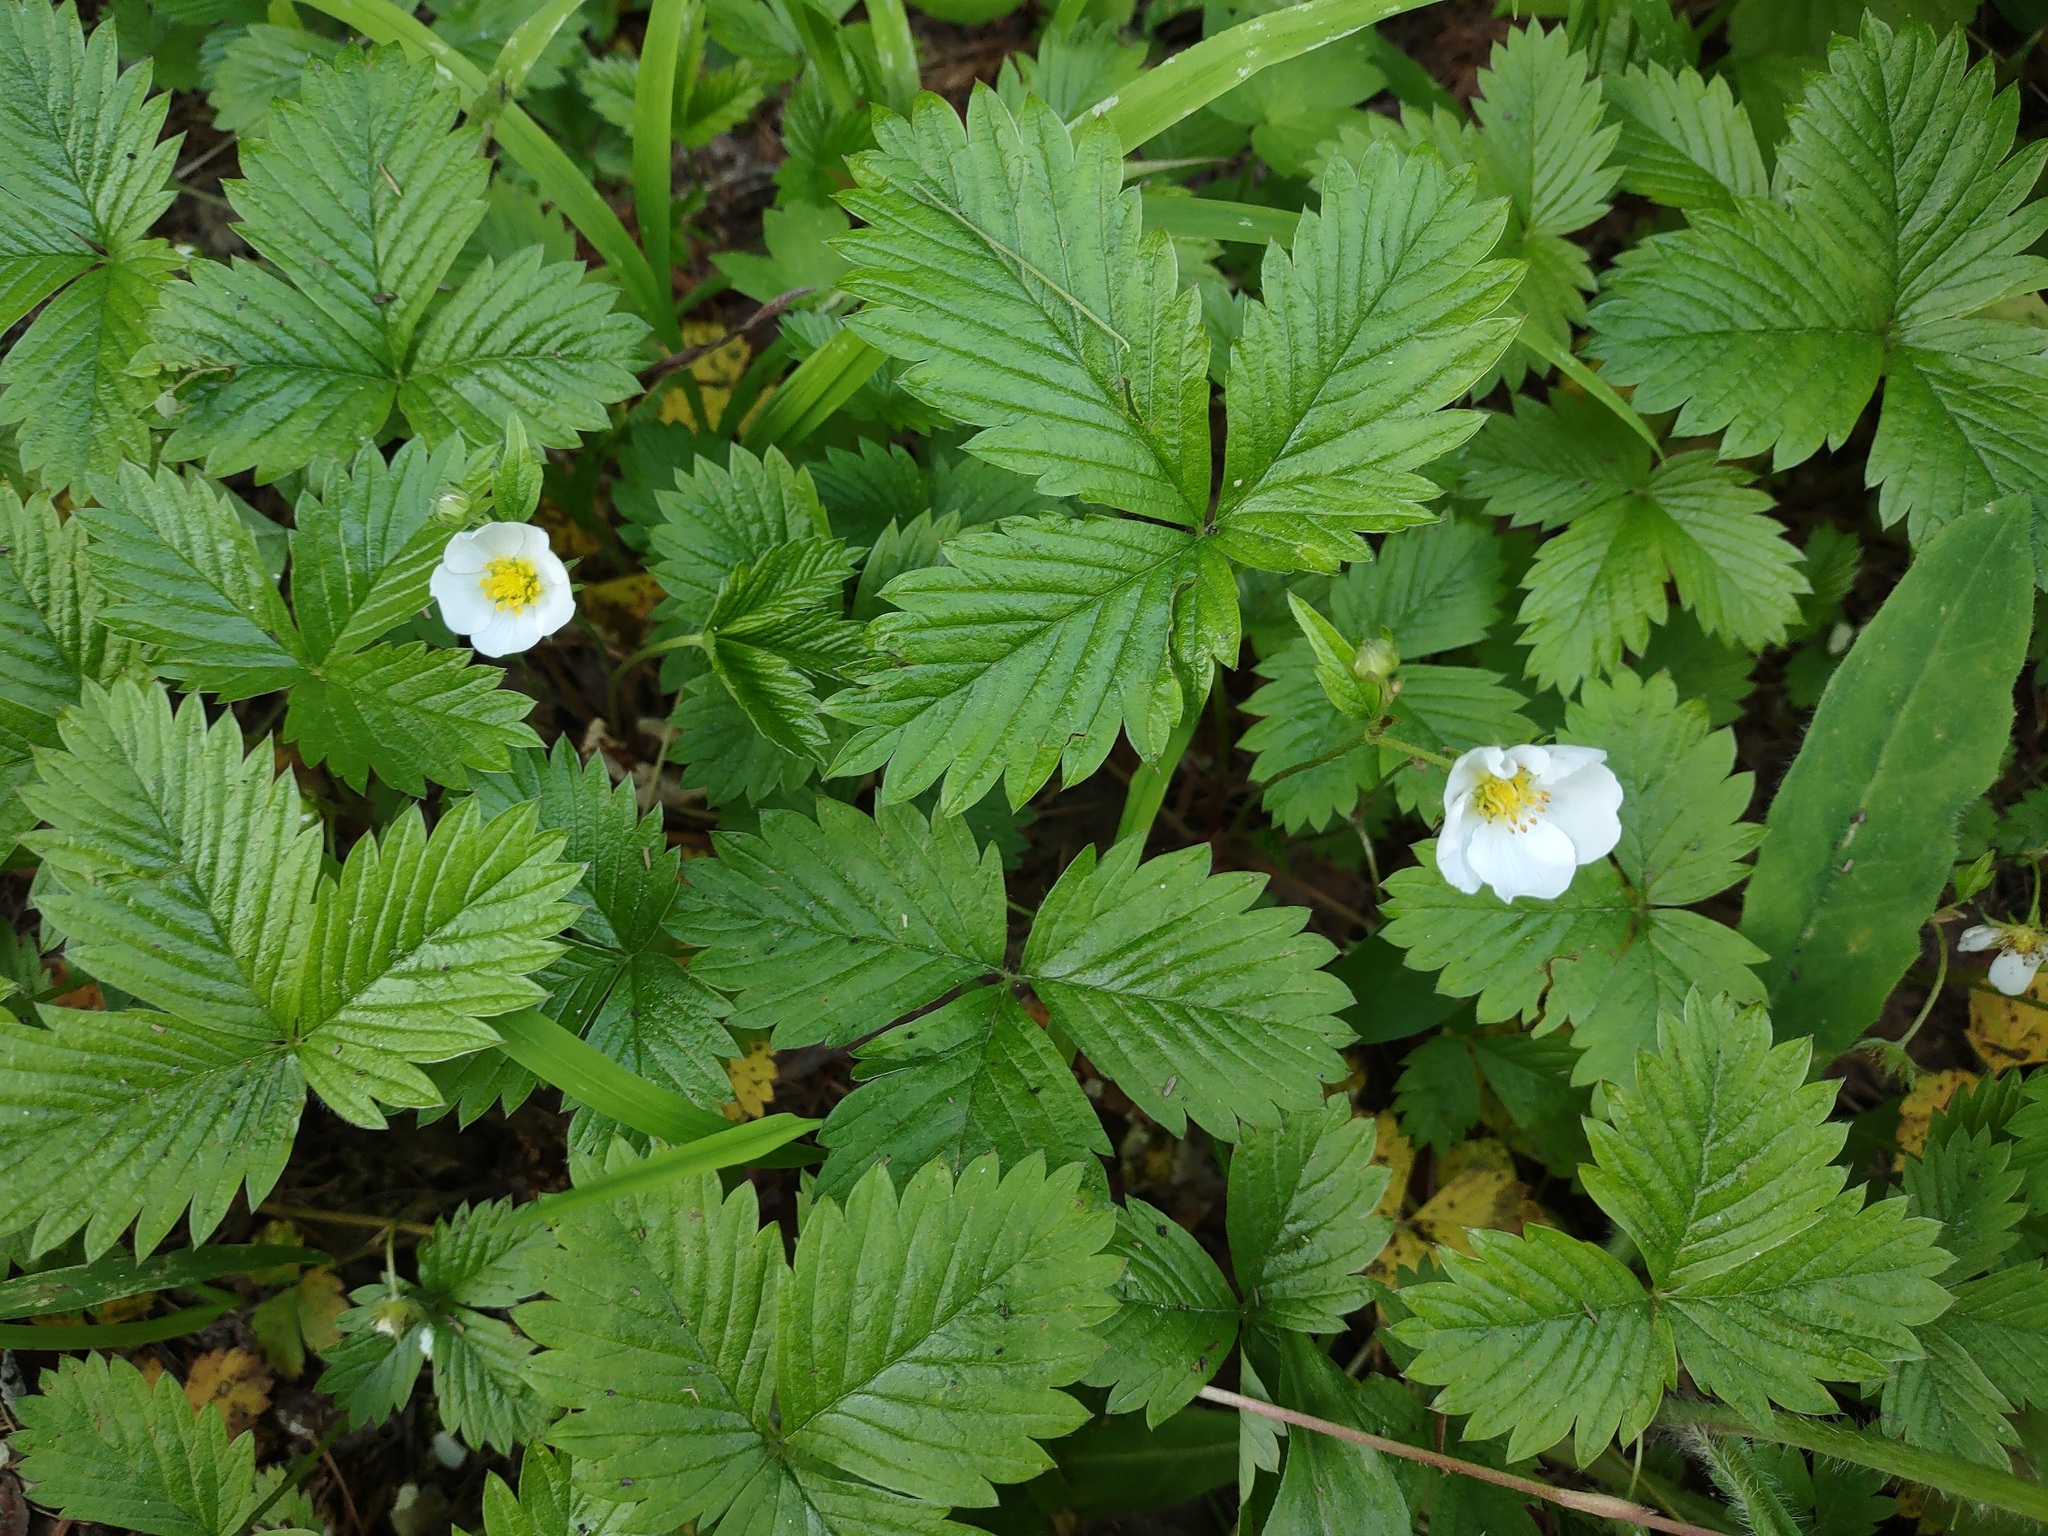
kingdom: Plantae
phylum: Tracheophyta
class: Magnoliopsida
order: Rosales
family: Rosaceae
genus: Fragaria
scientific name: Fragaria vesca
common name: Wild strawberry
